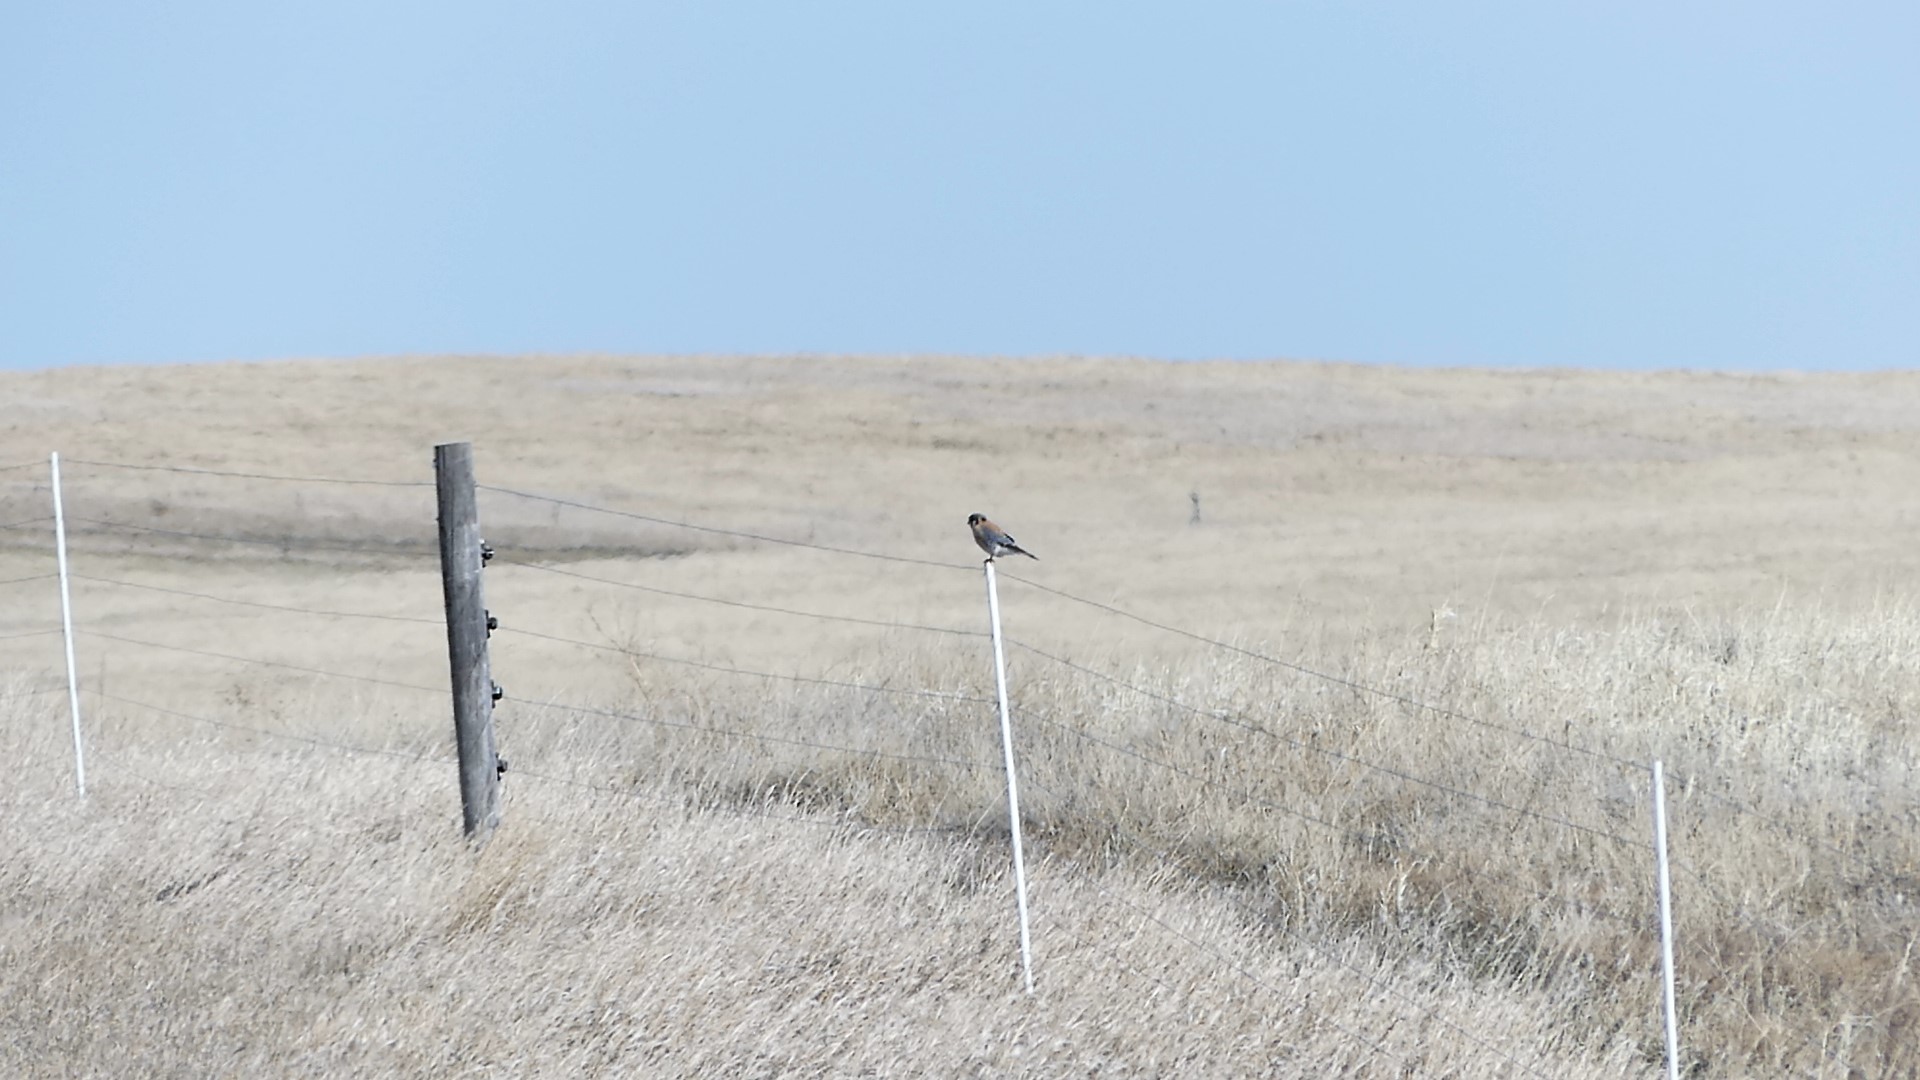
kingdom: Animalia
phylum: Chordata
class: Aves
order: Falconiformes
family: Falconidae
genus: Falco
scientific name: Falco sparverius
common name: American kestrel
